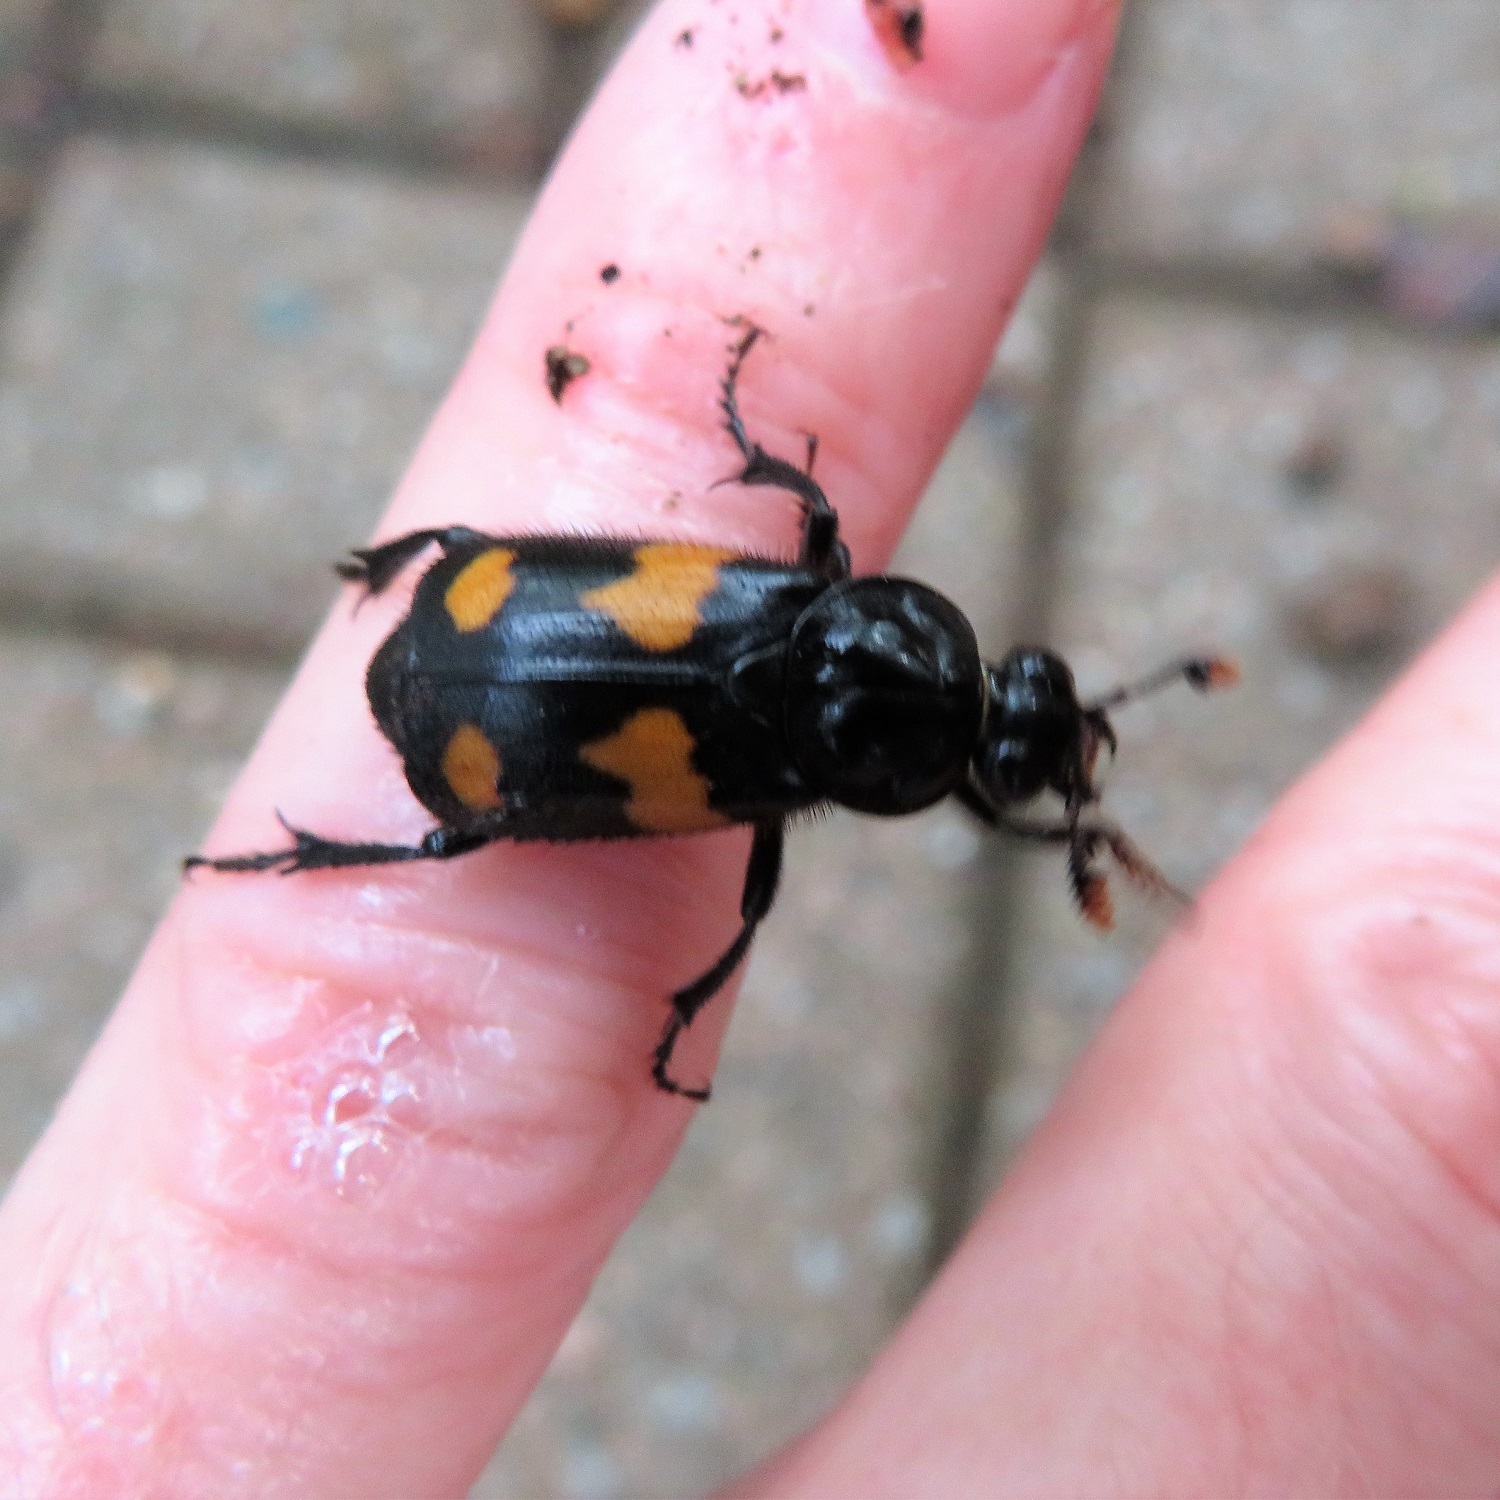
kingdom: Animalia
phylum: Arthropoda
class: Insecta
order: Coleoptera
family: Staphylinidae
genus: Nicrophorus
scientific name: Nicrophorus orbicollis
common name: Roundneck sexton beetle
